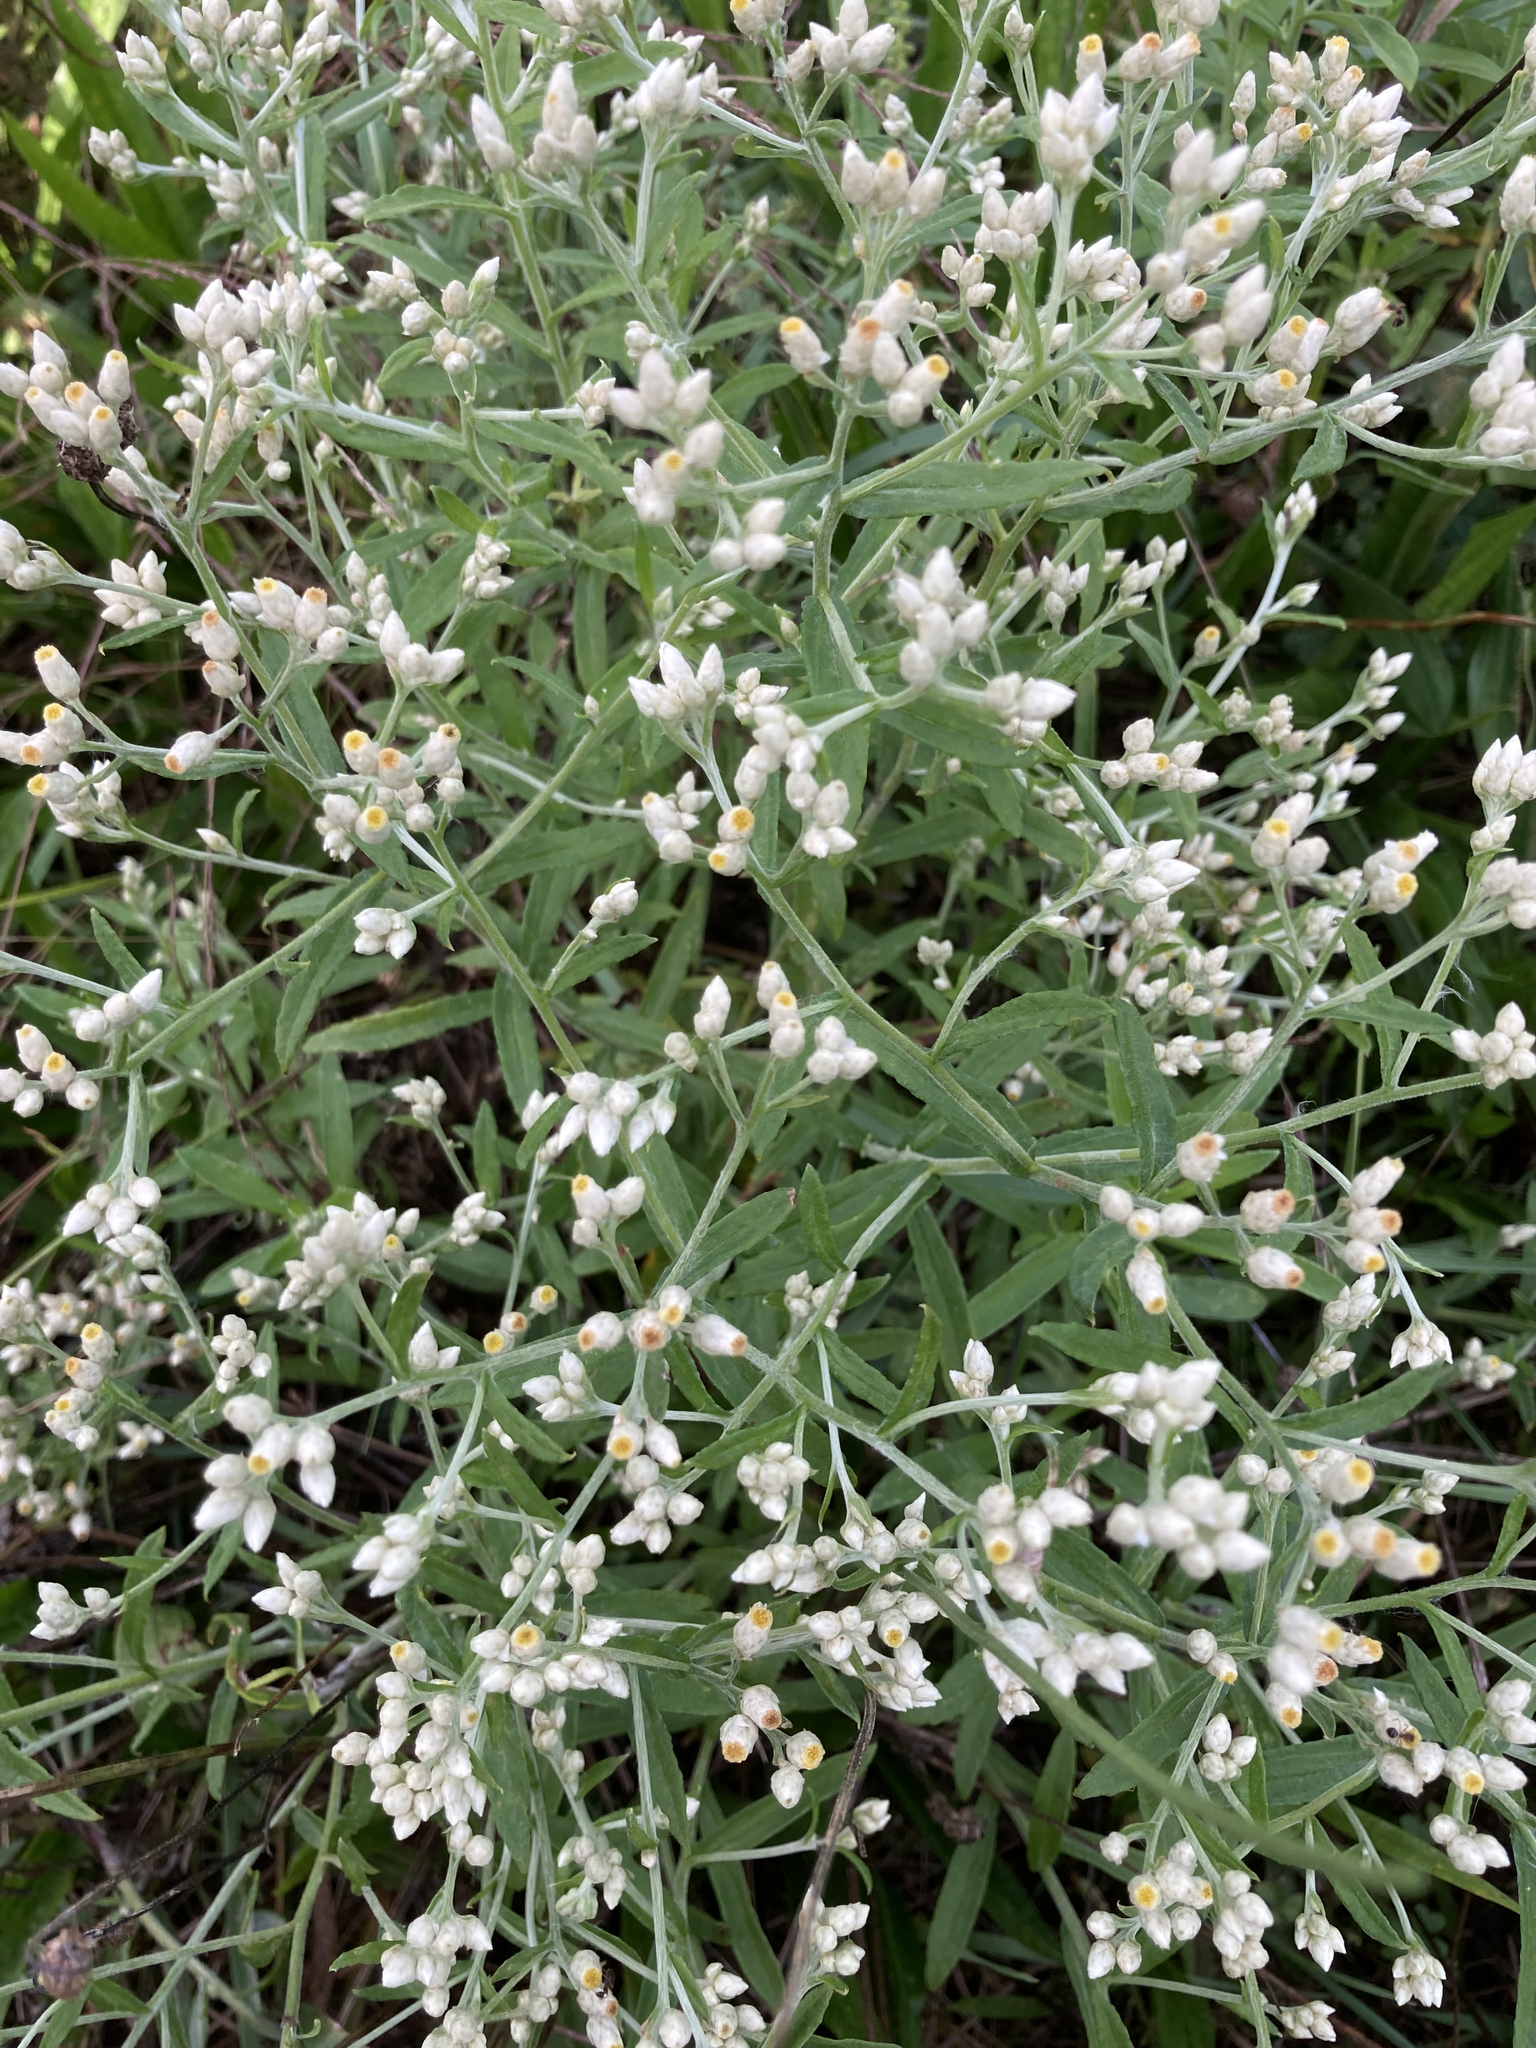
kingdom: Plantae
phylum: Tracheophyta
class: Magnoliopsida
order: Asterales
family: Asteraceae
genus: Pseudognaphalium
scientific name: Pseudognaphalium obtusifolium
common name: Eastern rabbit-tobacco
